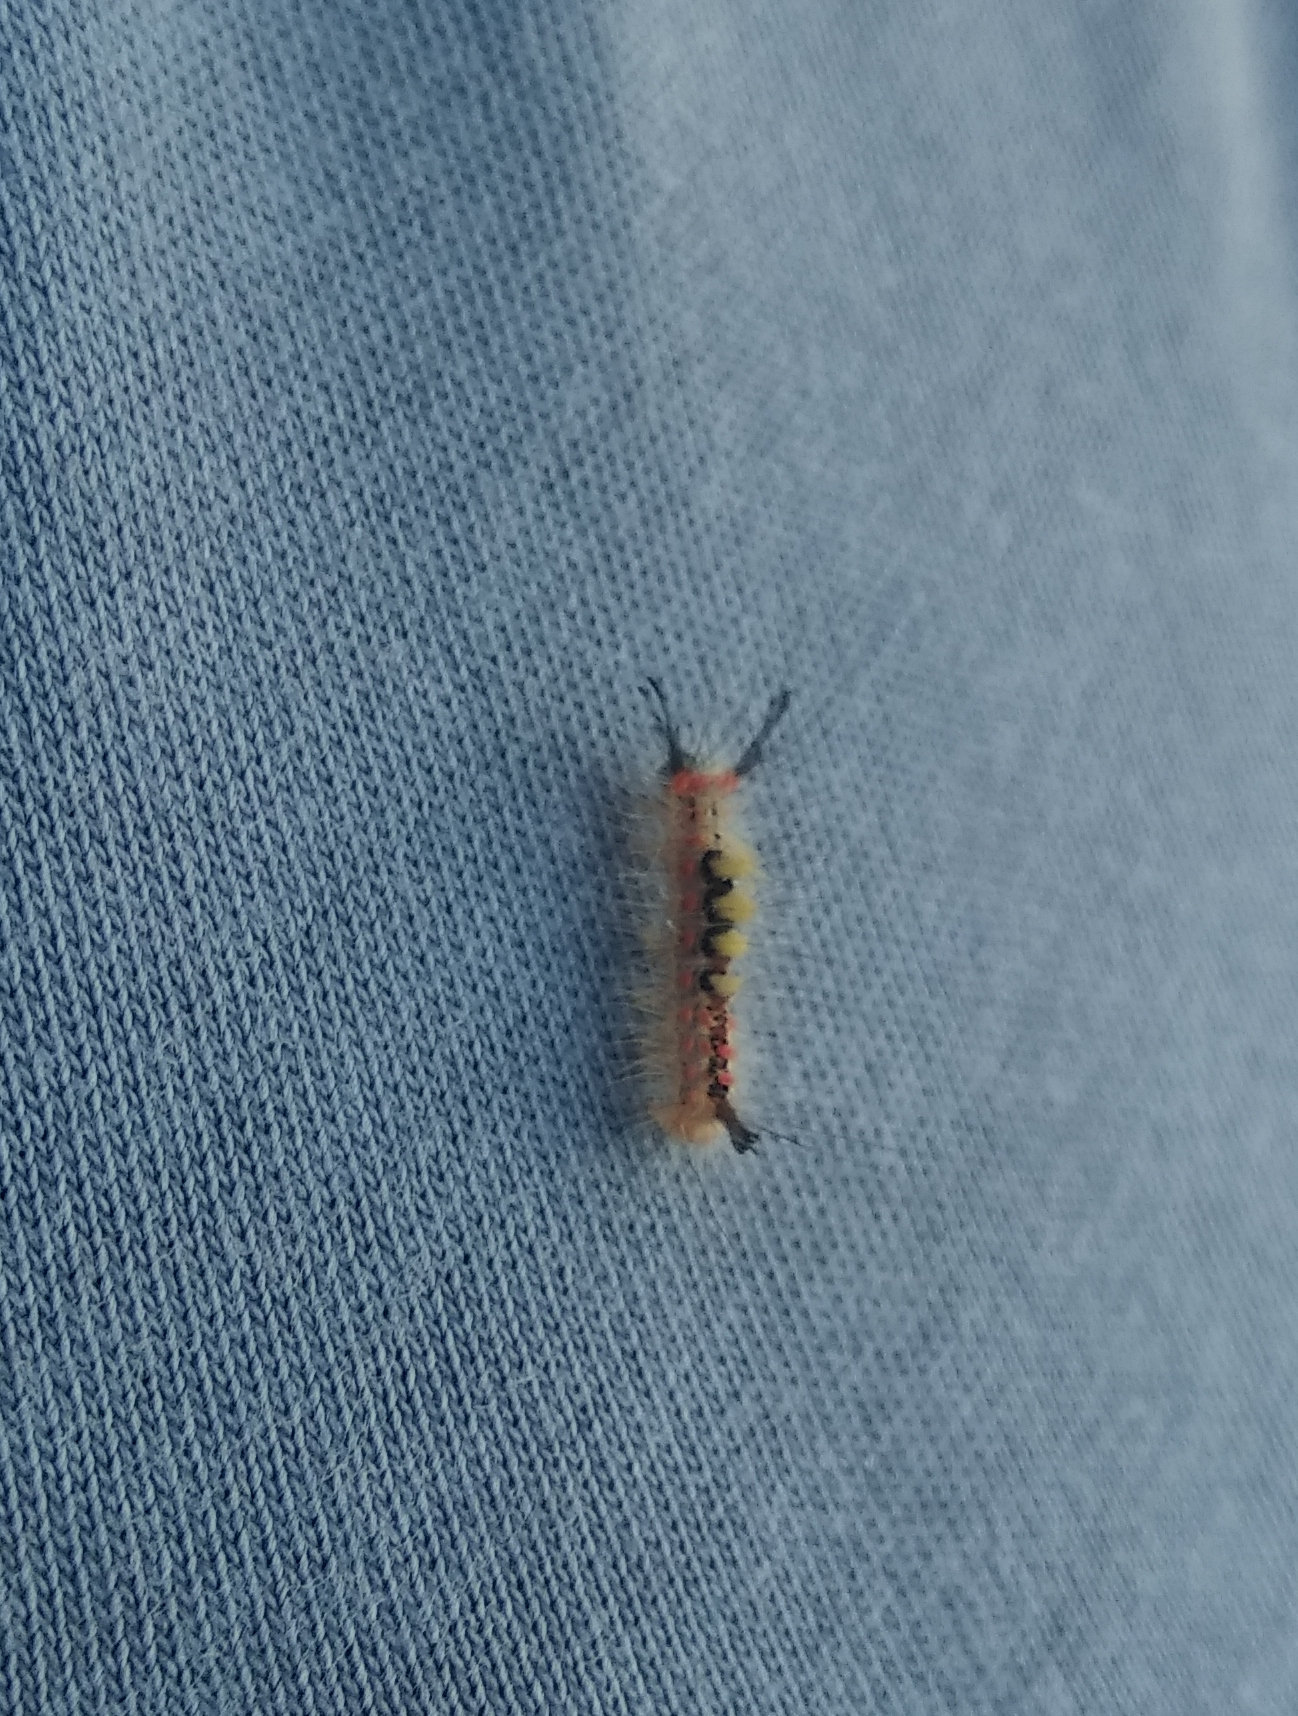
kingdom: Animalia
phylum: Arthropoda
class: Insecta
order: Lepidoptera
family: Erebidae
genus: Orgyia
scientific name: Orgyia antiqua
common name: Vapourer
